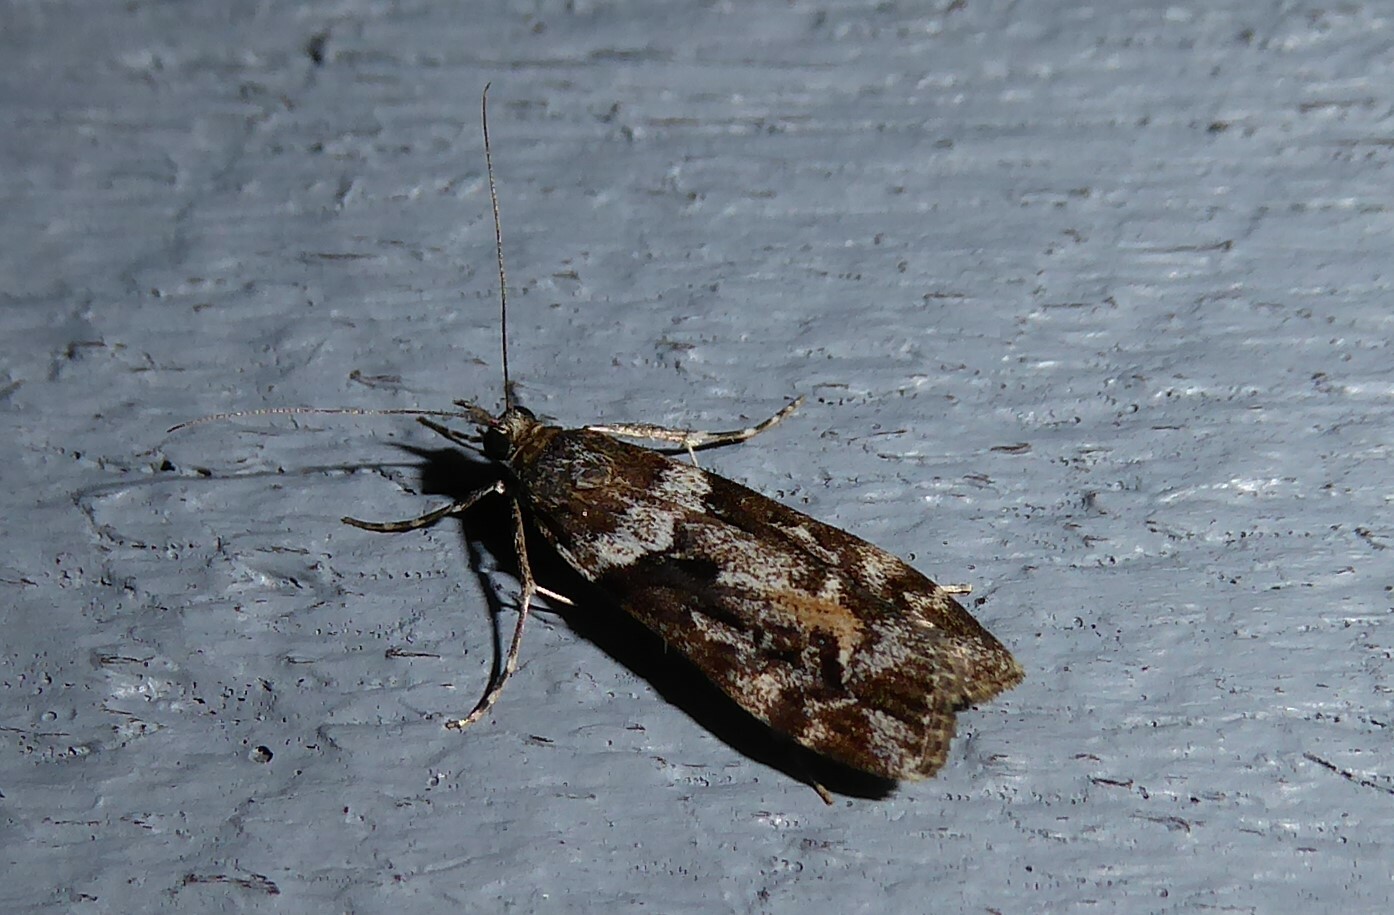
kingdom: Animalia
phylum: Arthropoda
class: Insecta
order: Lepidoptera
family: Crambidae
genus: Eudonia
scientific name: Eudonia submarginalis
